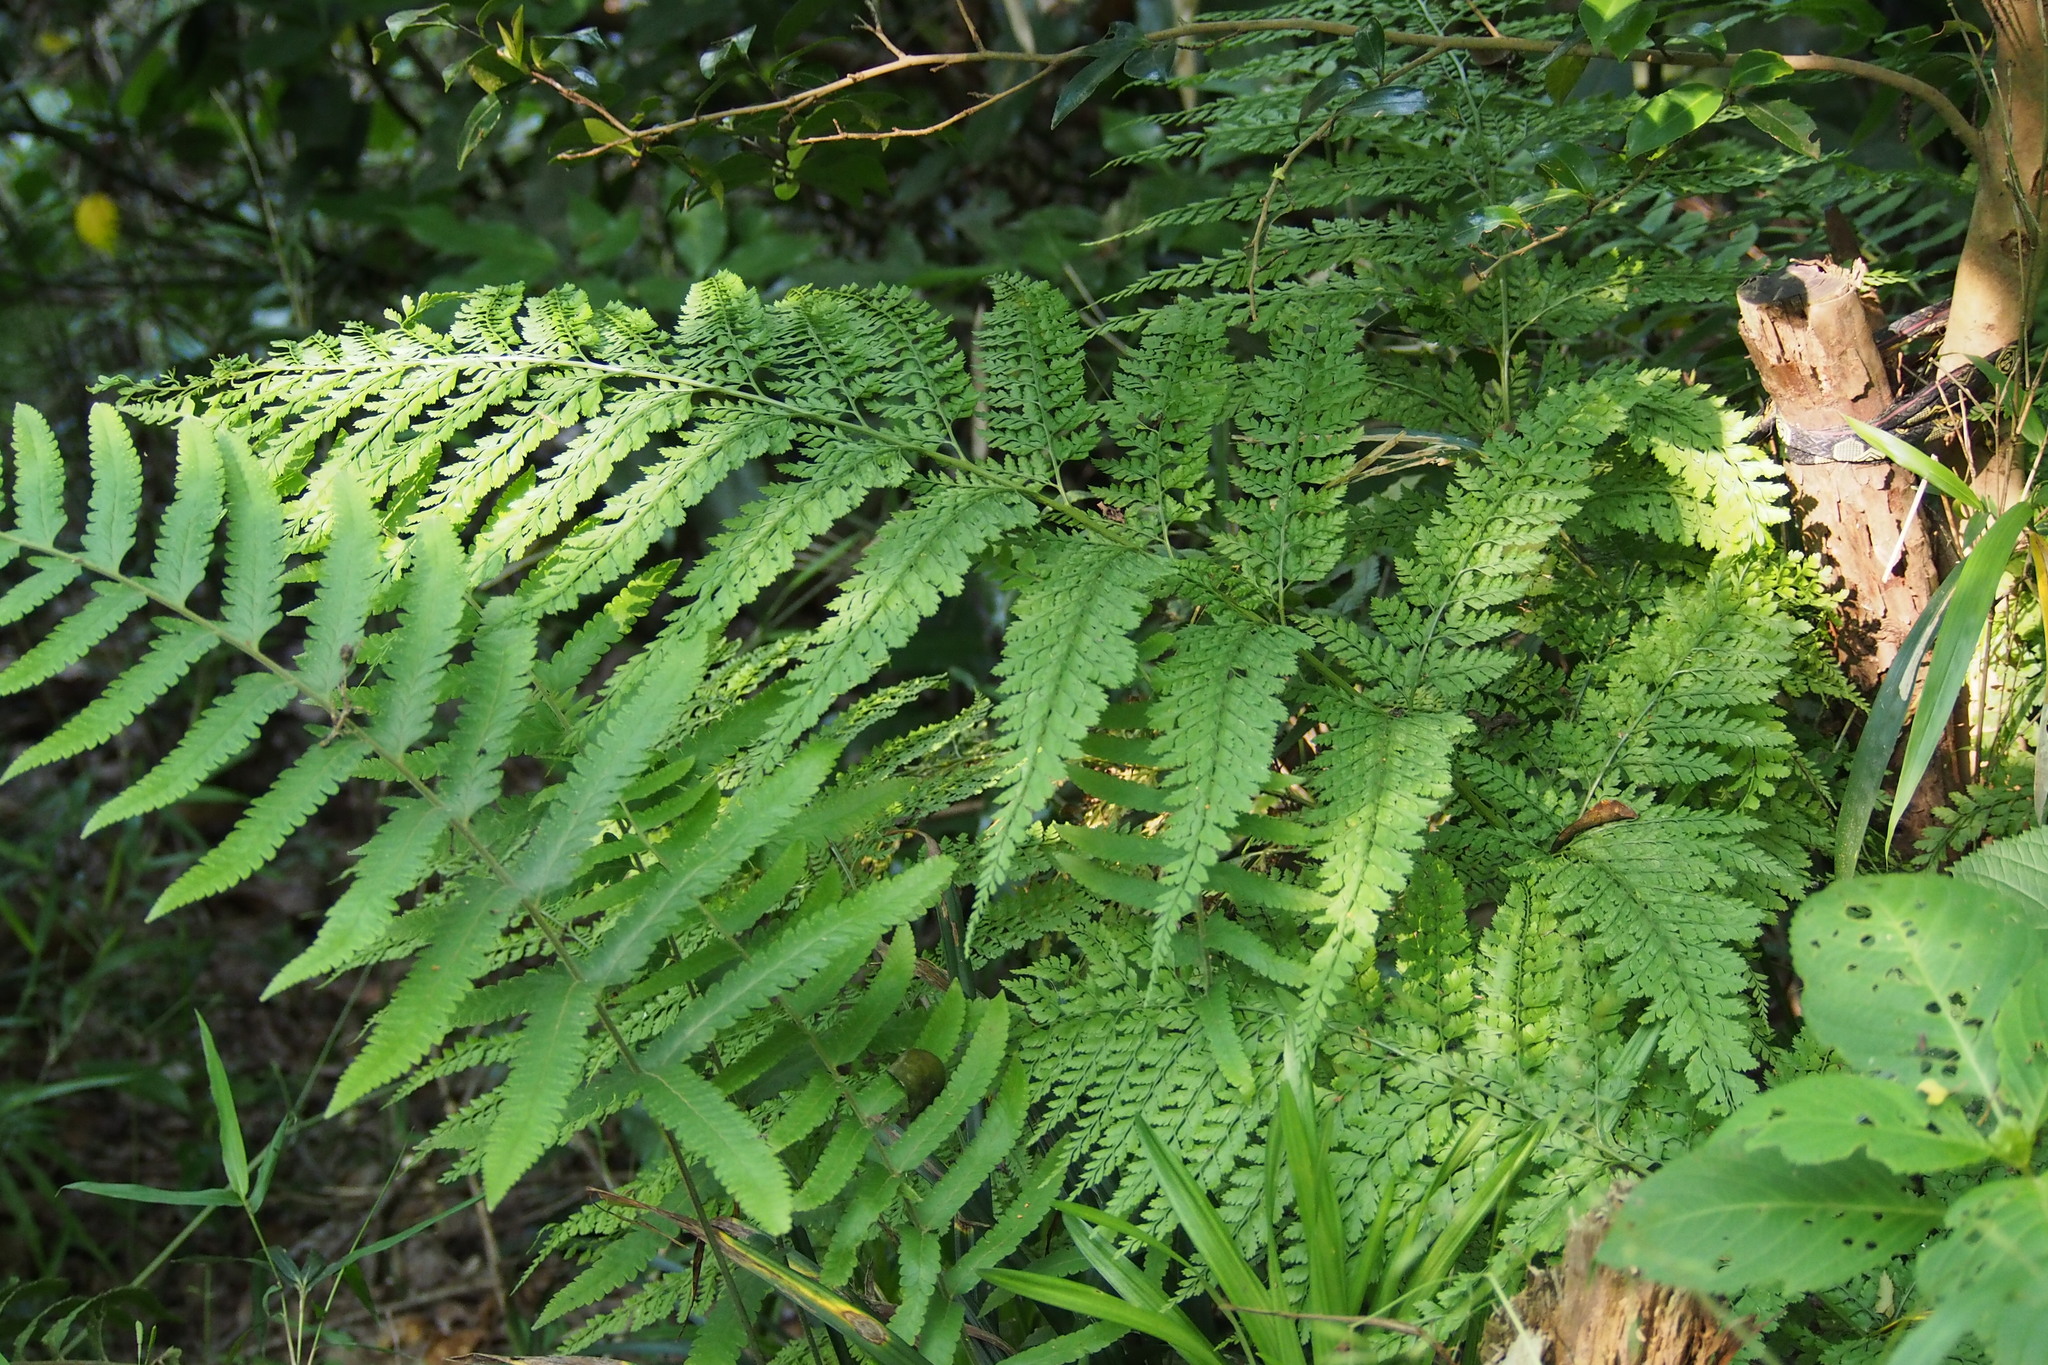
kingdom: Plantae
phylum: Tracheophyta
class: Polypodiopsida
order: Polypodiales
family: Dryopteridaceae
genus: Arachniodes
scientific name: Arachniodes standishii
